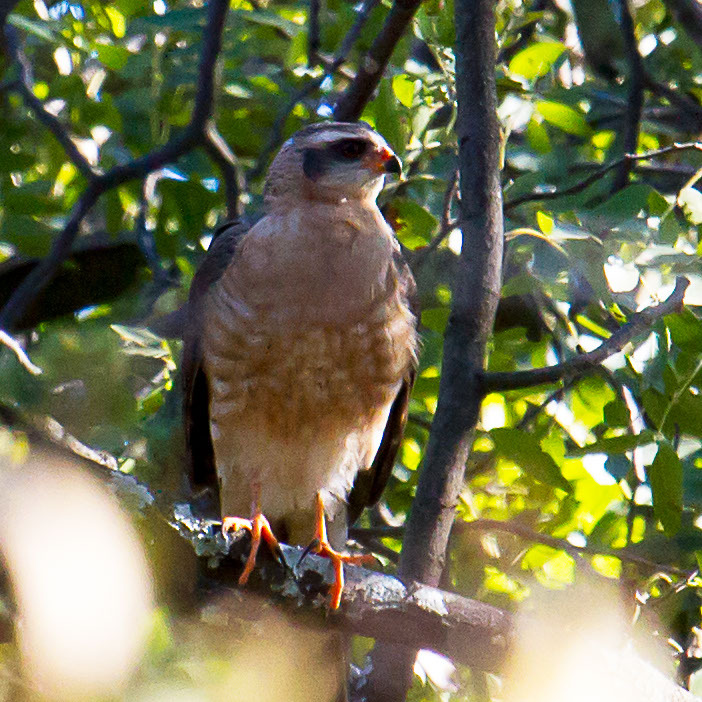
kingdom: Animalia
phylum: Chordata
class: Aves
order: Accipitriformes
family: Accipitridae
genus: Accipiter
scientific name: Accipiter ovampensis
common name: Ovambo sparrowhawk
